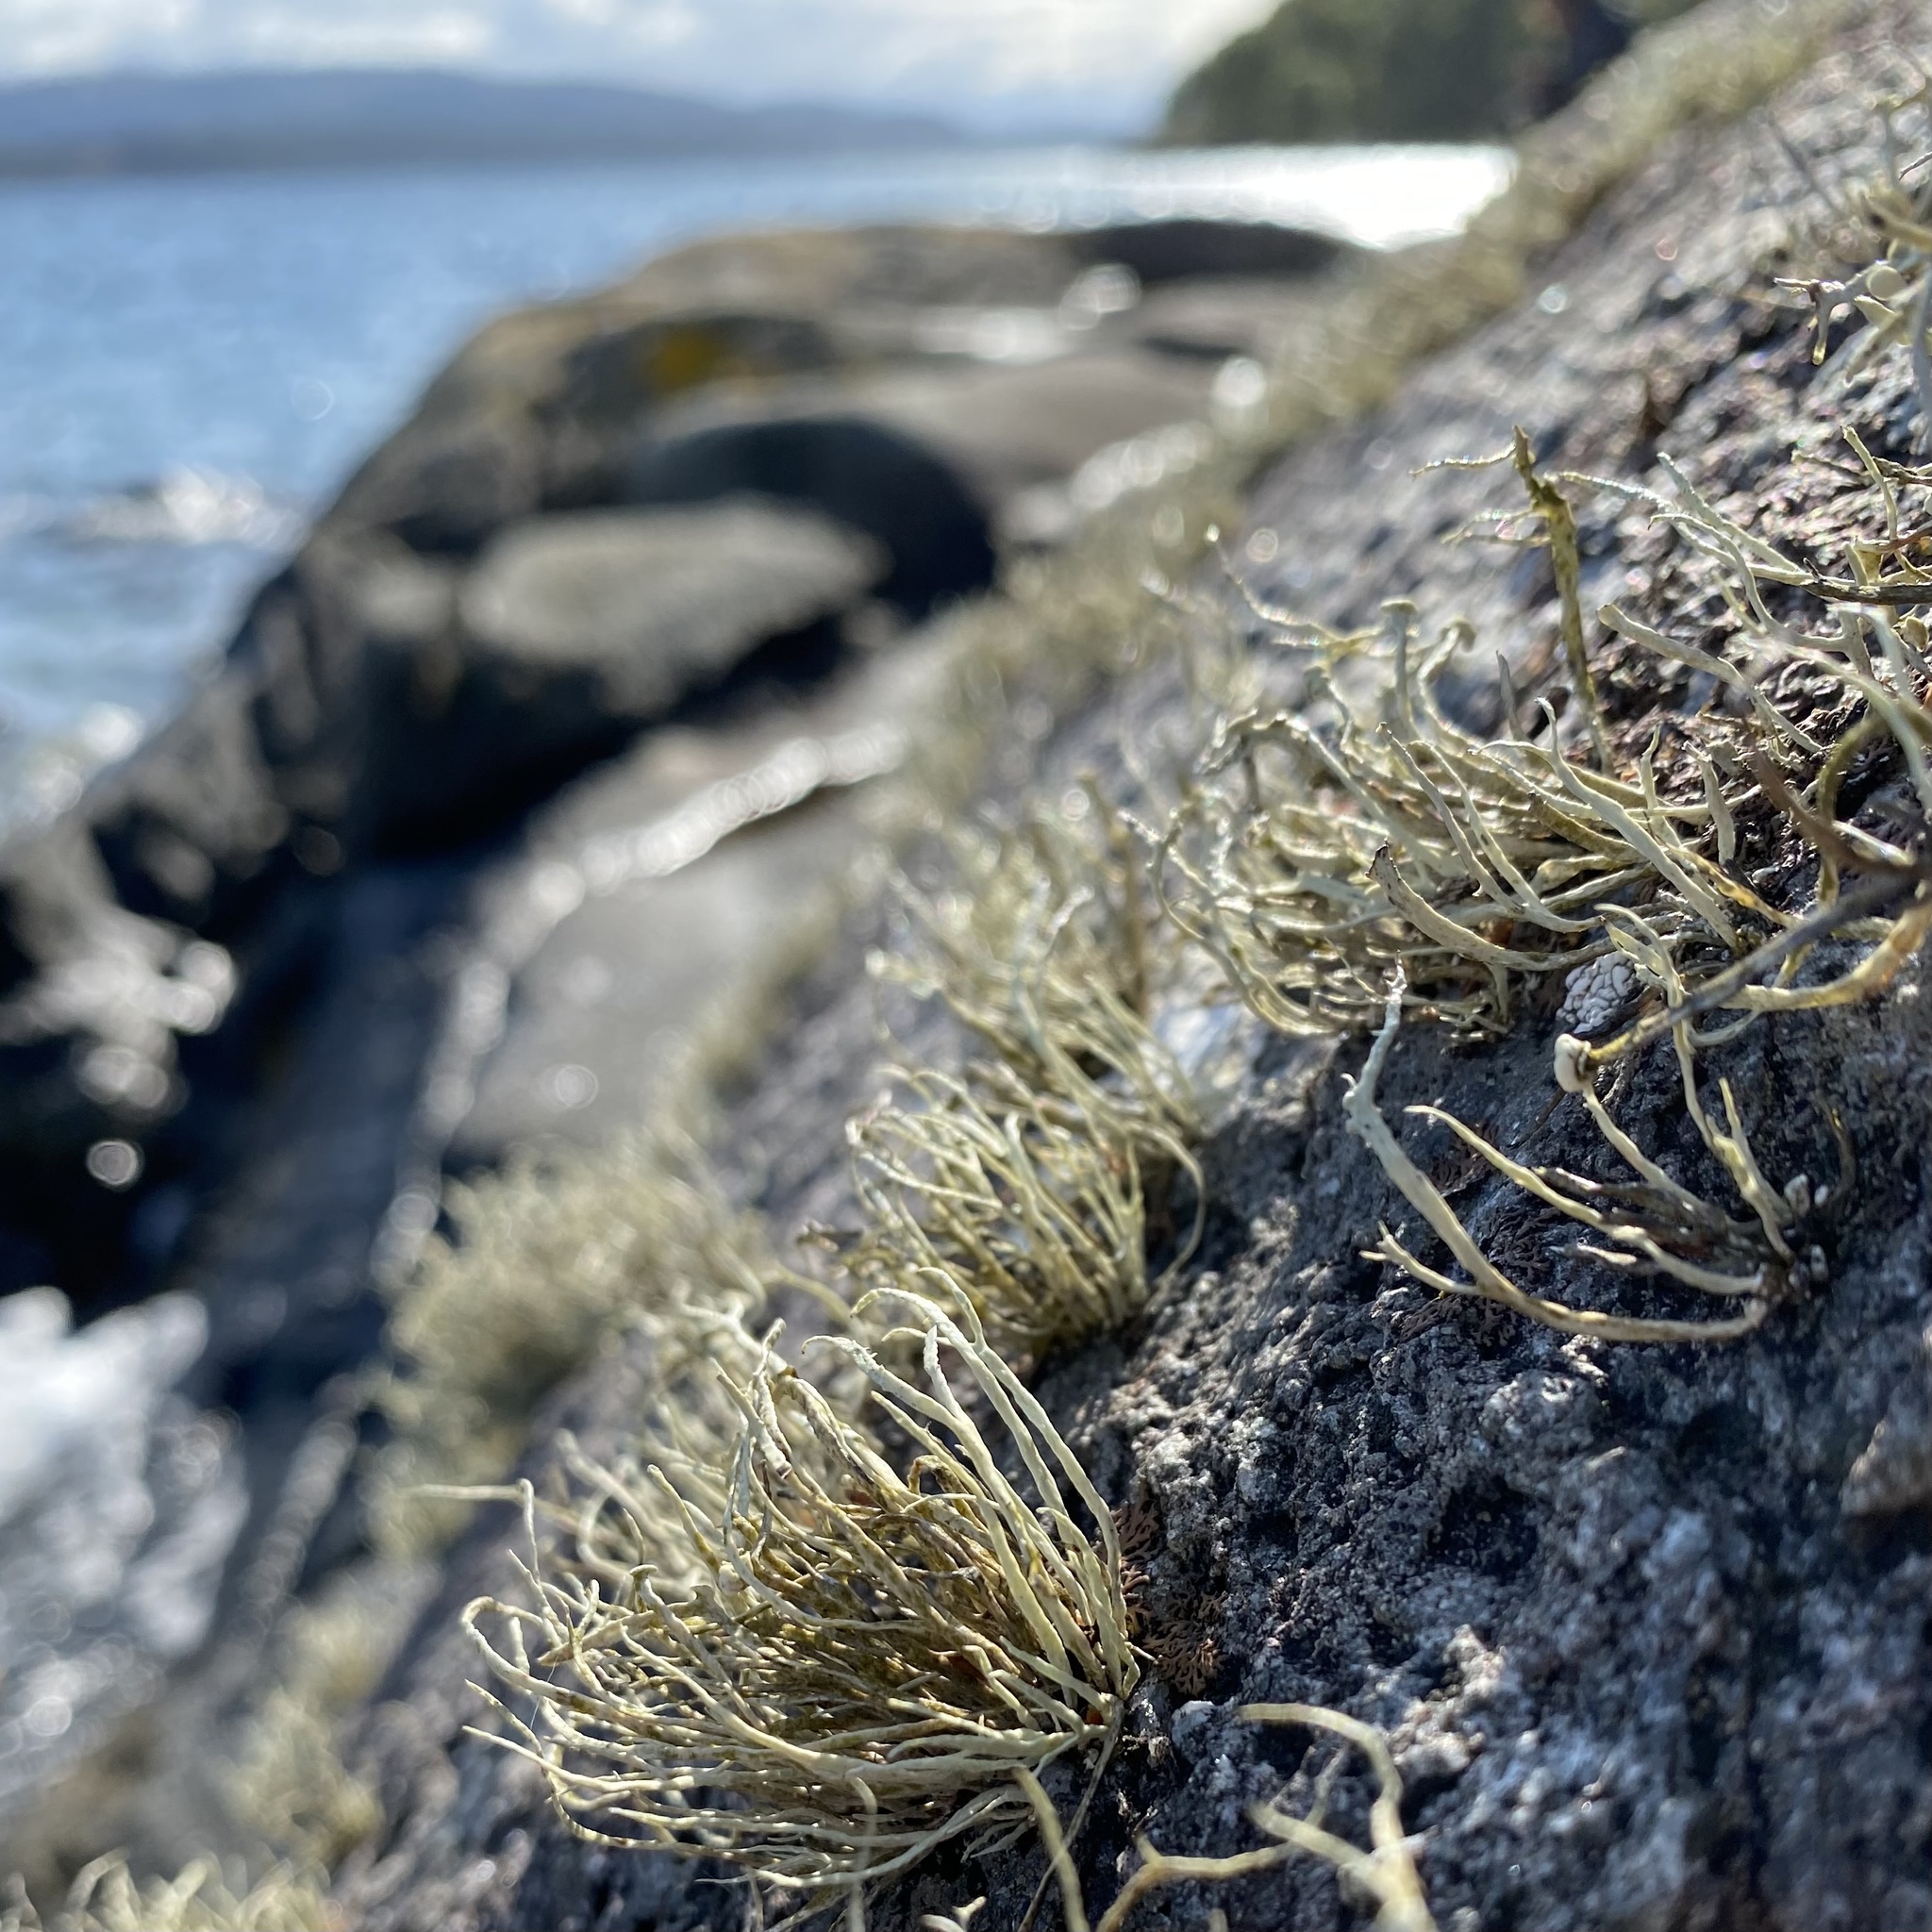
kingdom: Fungi
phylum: Ascomycota
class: Lecanoromycetes
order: Lecanorales
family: Ramalinaceae
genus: Ramalina
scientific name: Ramalina cuspidata
